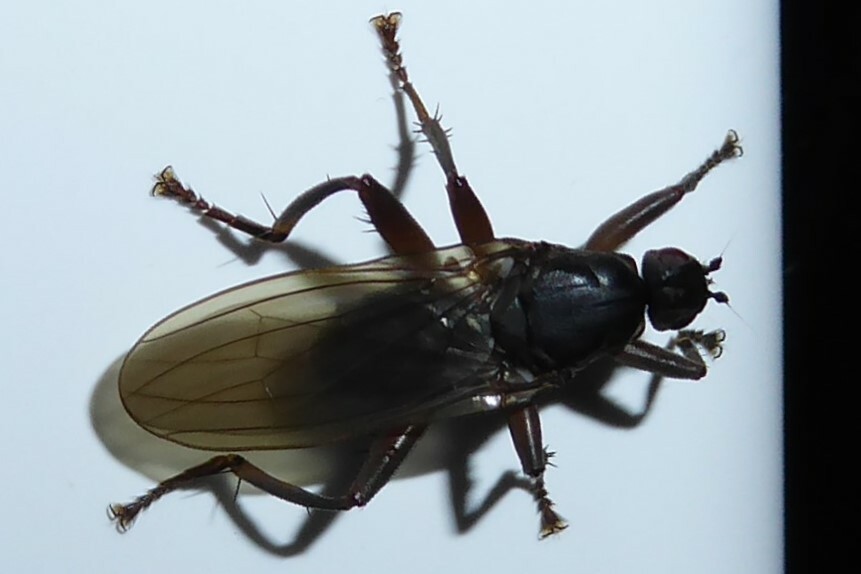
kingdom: Animalia
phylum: Arthropoda
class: Insecta
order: Diptera
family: Coelopidae
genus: Baeopterus
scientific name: Baeopterus philpotti
